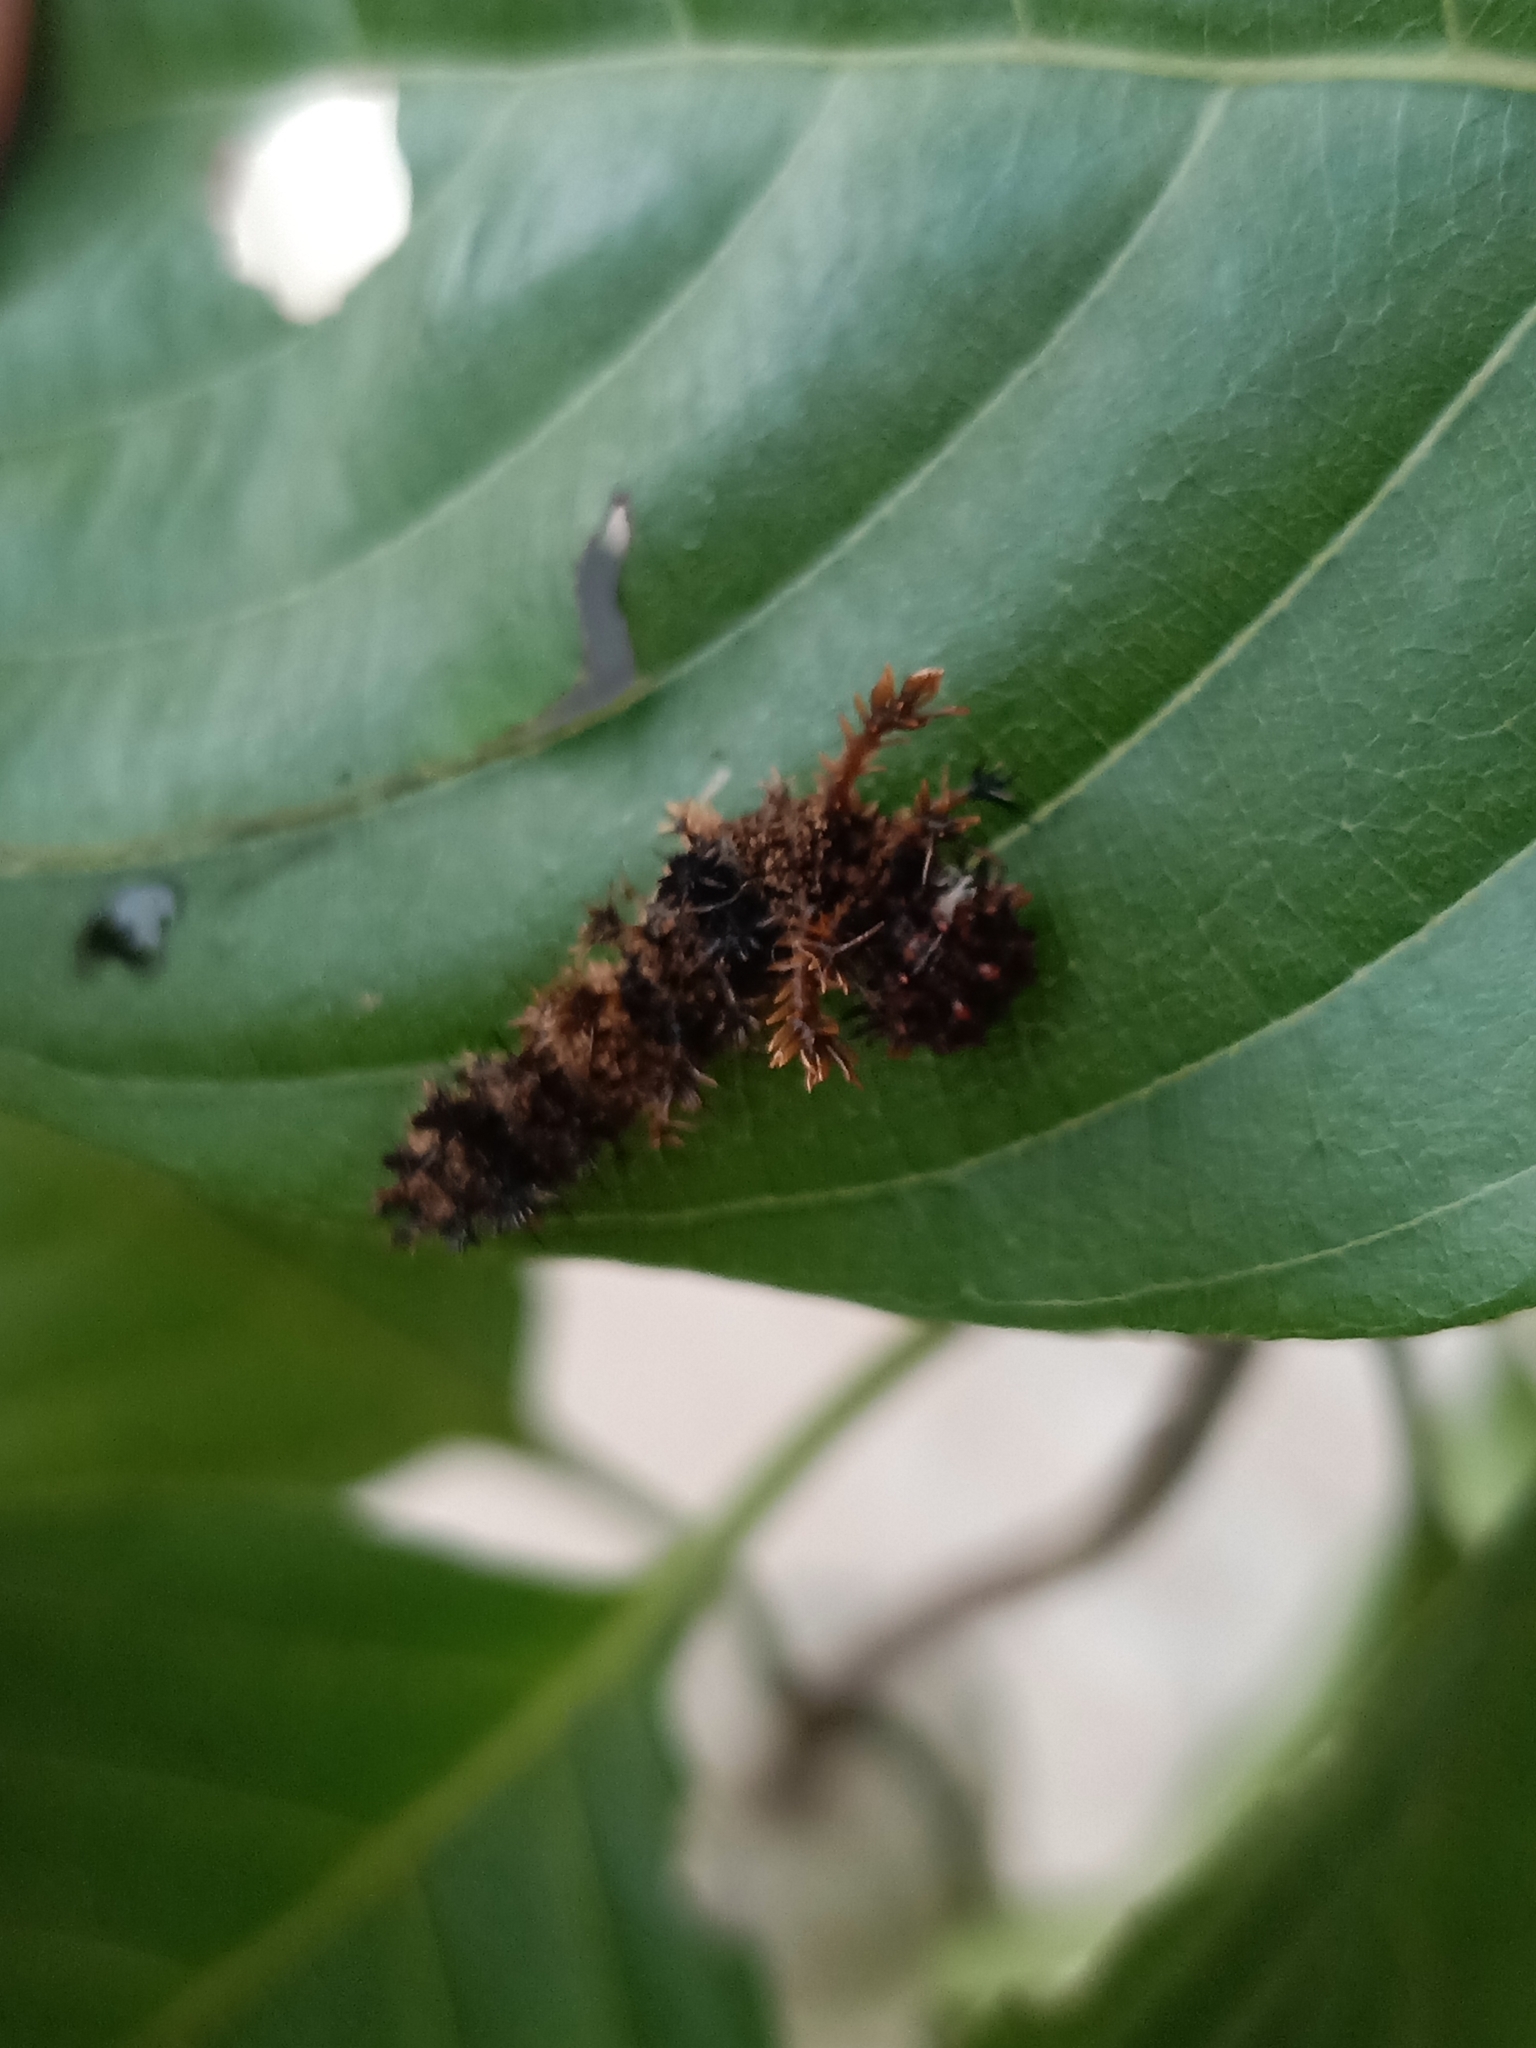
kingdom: Animalia
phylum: Arthropoda
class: Insecta
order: Lepidoptera
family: Nymphalidae
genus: Limenitis
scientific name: Limenitis Moduza procris
